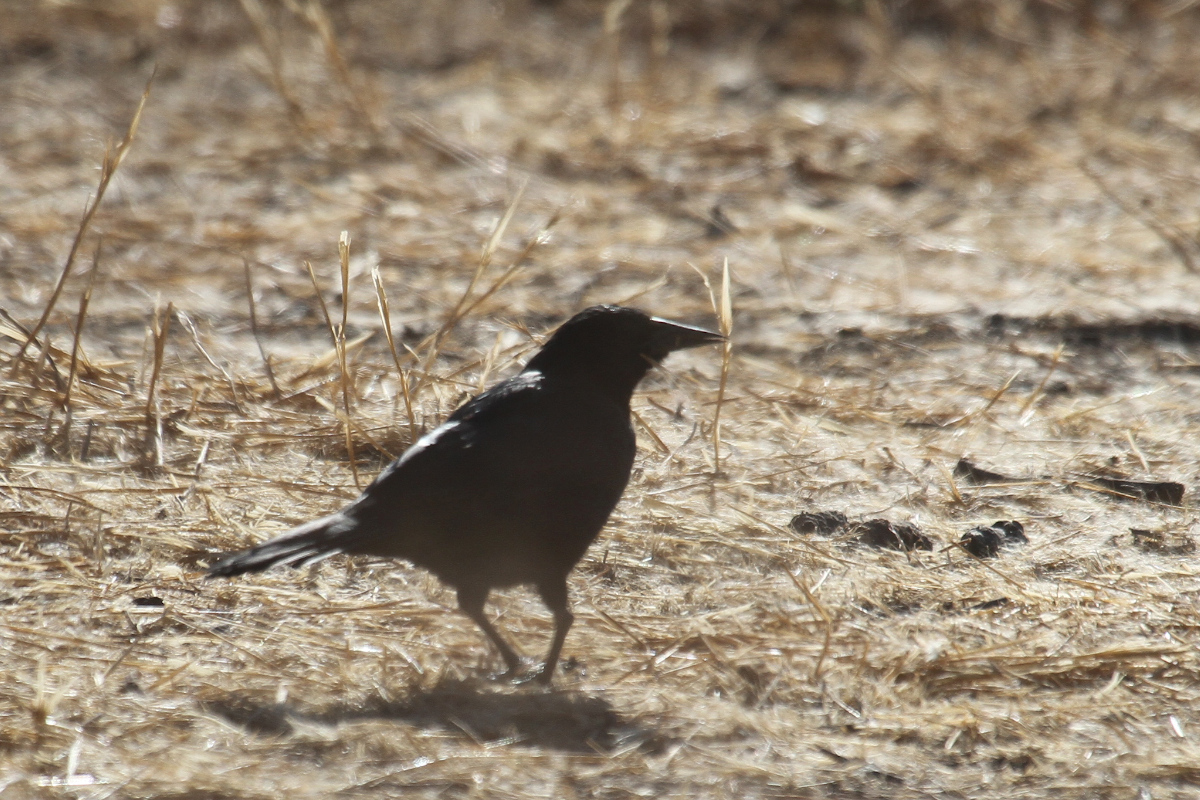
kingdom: Animalia
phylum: Chordata
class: Aves
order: Passeriformes
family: Icteridae
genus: Curaeus
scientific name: Curaeus curaeus
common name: Austral blackbird
